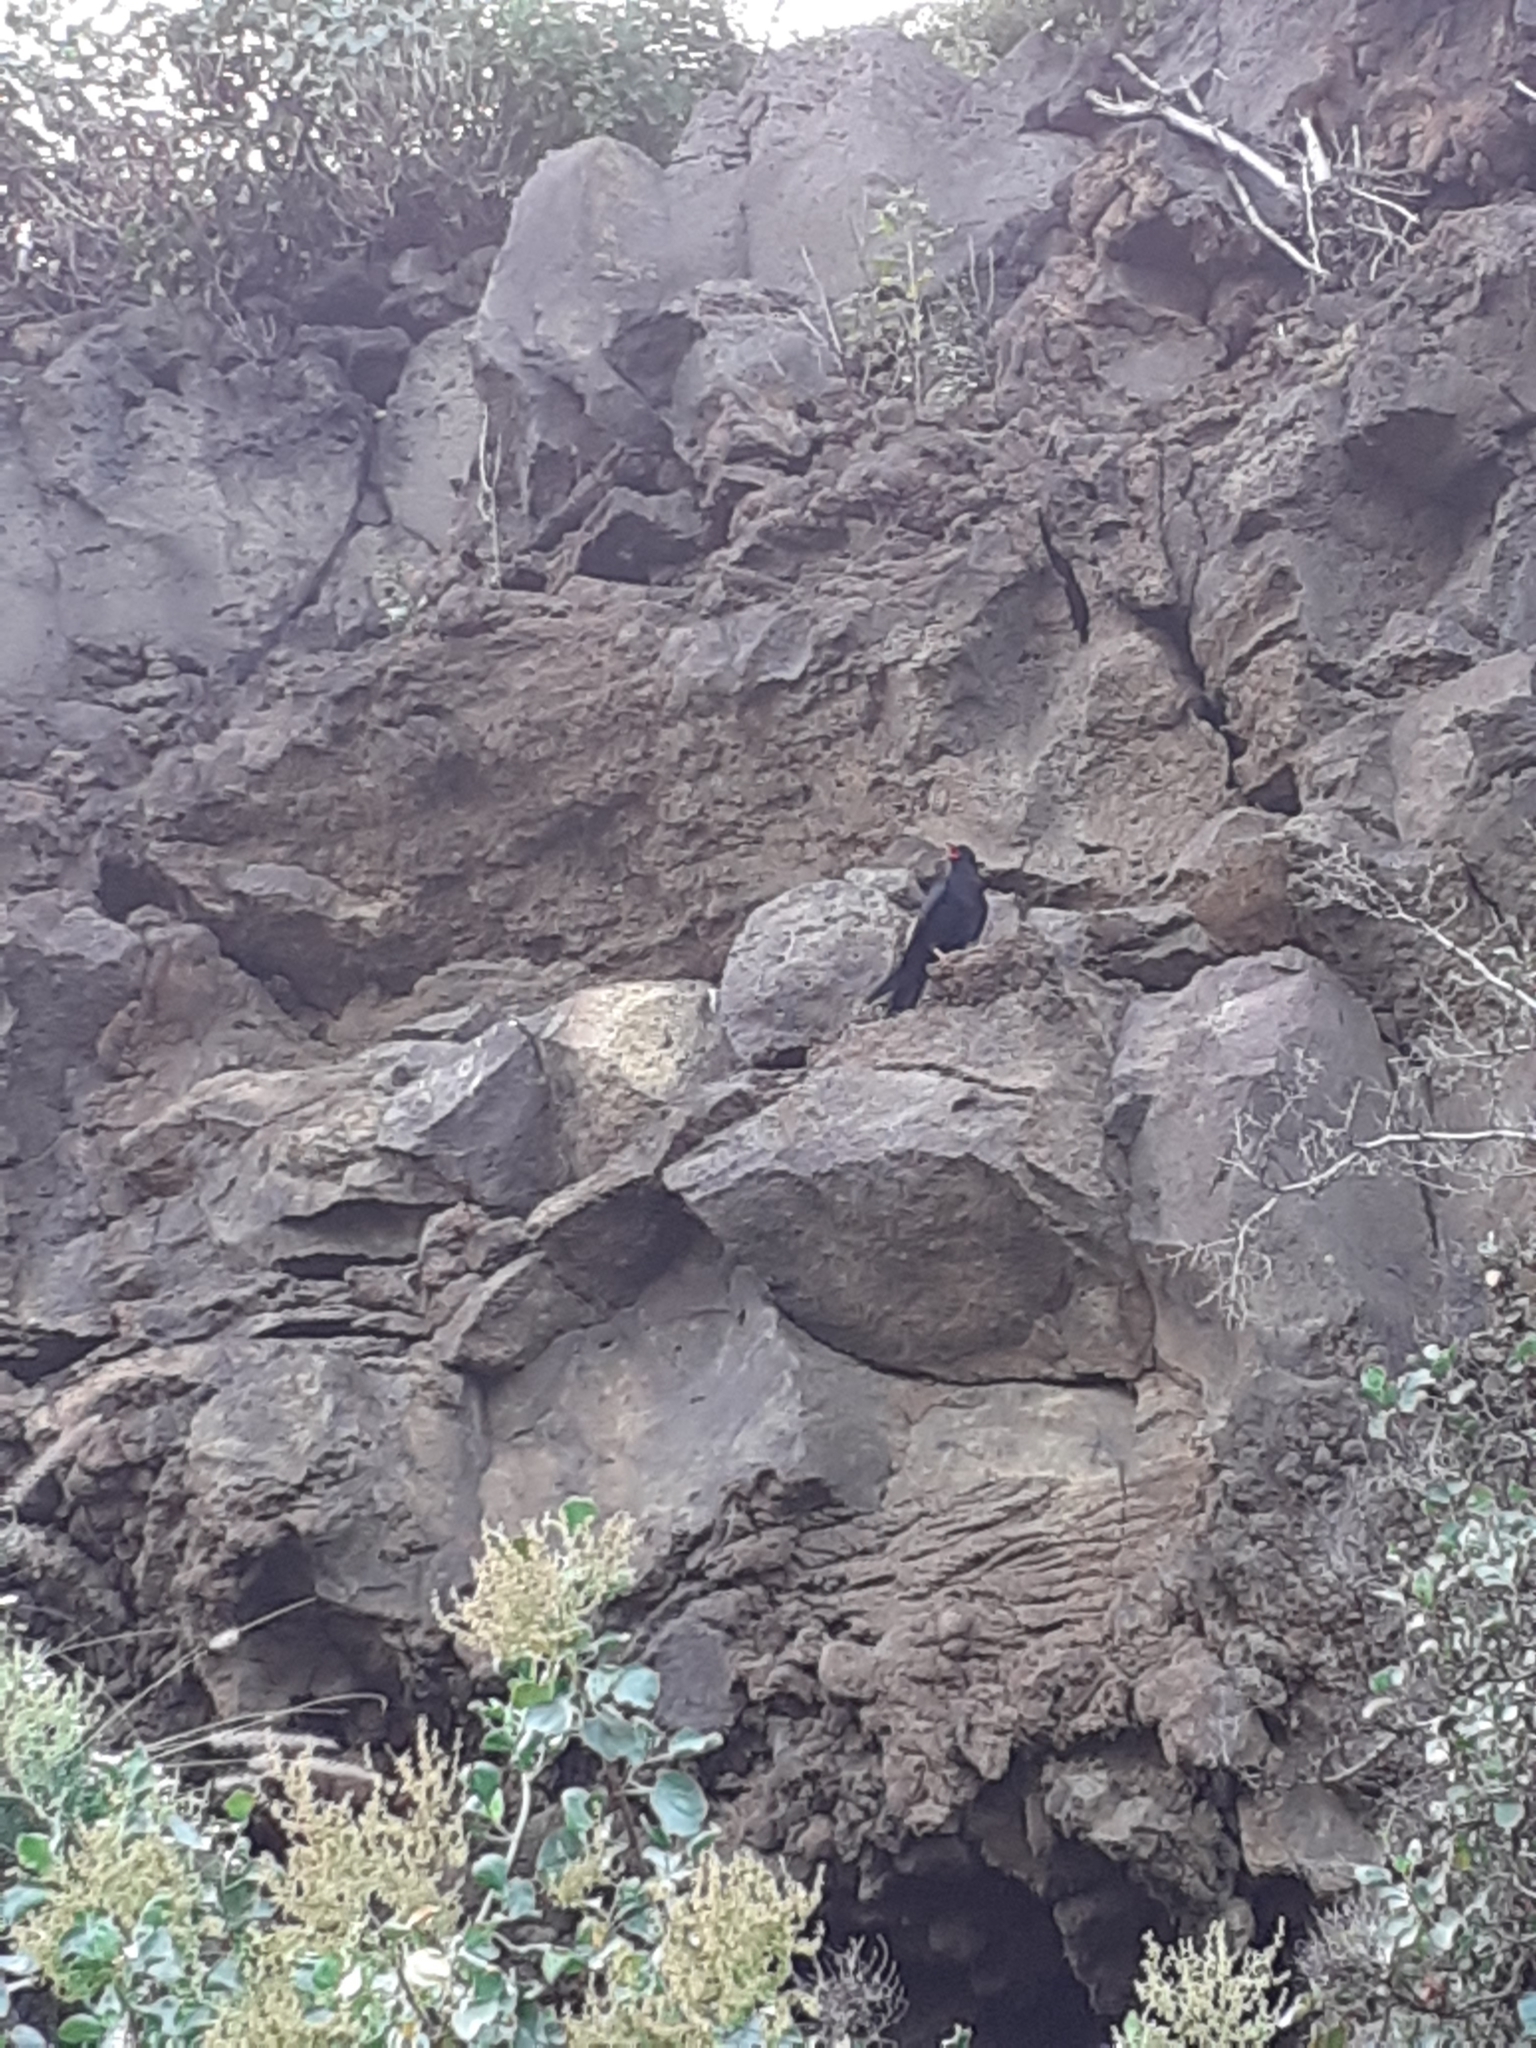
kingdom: Animalia
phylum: Chordata
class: Aves
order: Passeriformes
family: Corvidae
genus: Pyrrhocorax
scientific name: Pyrrhocorax pyrrhocorax
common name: Red-billed chough
